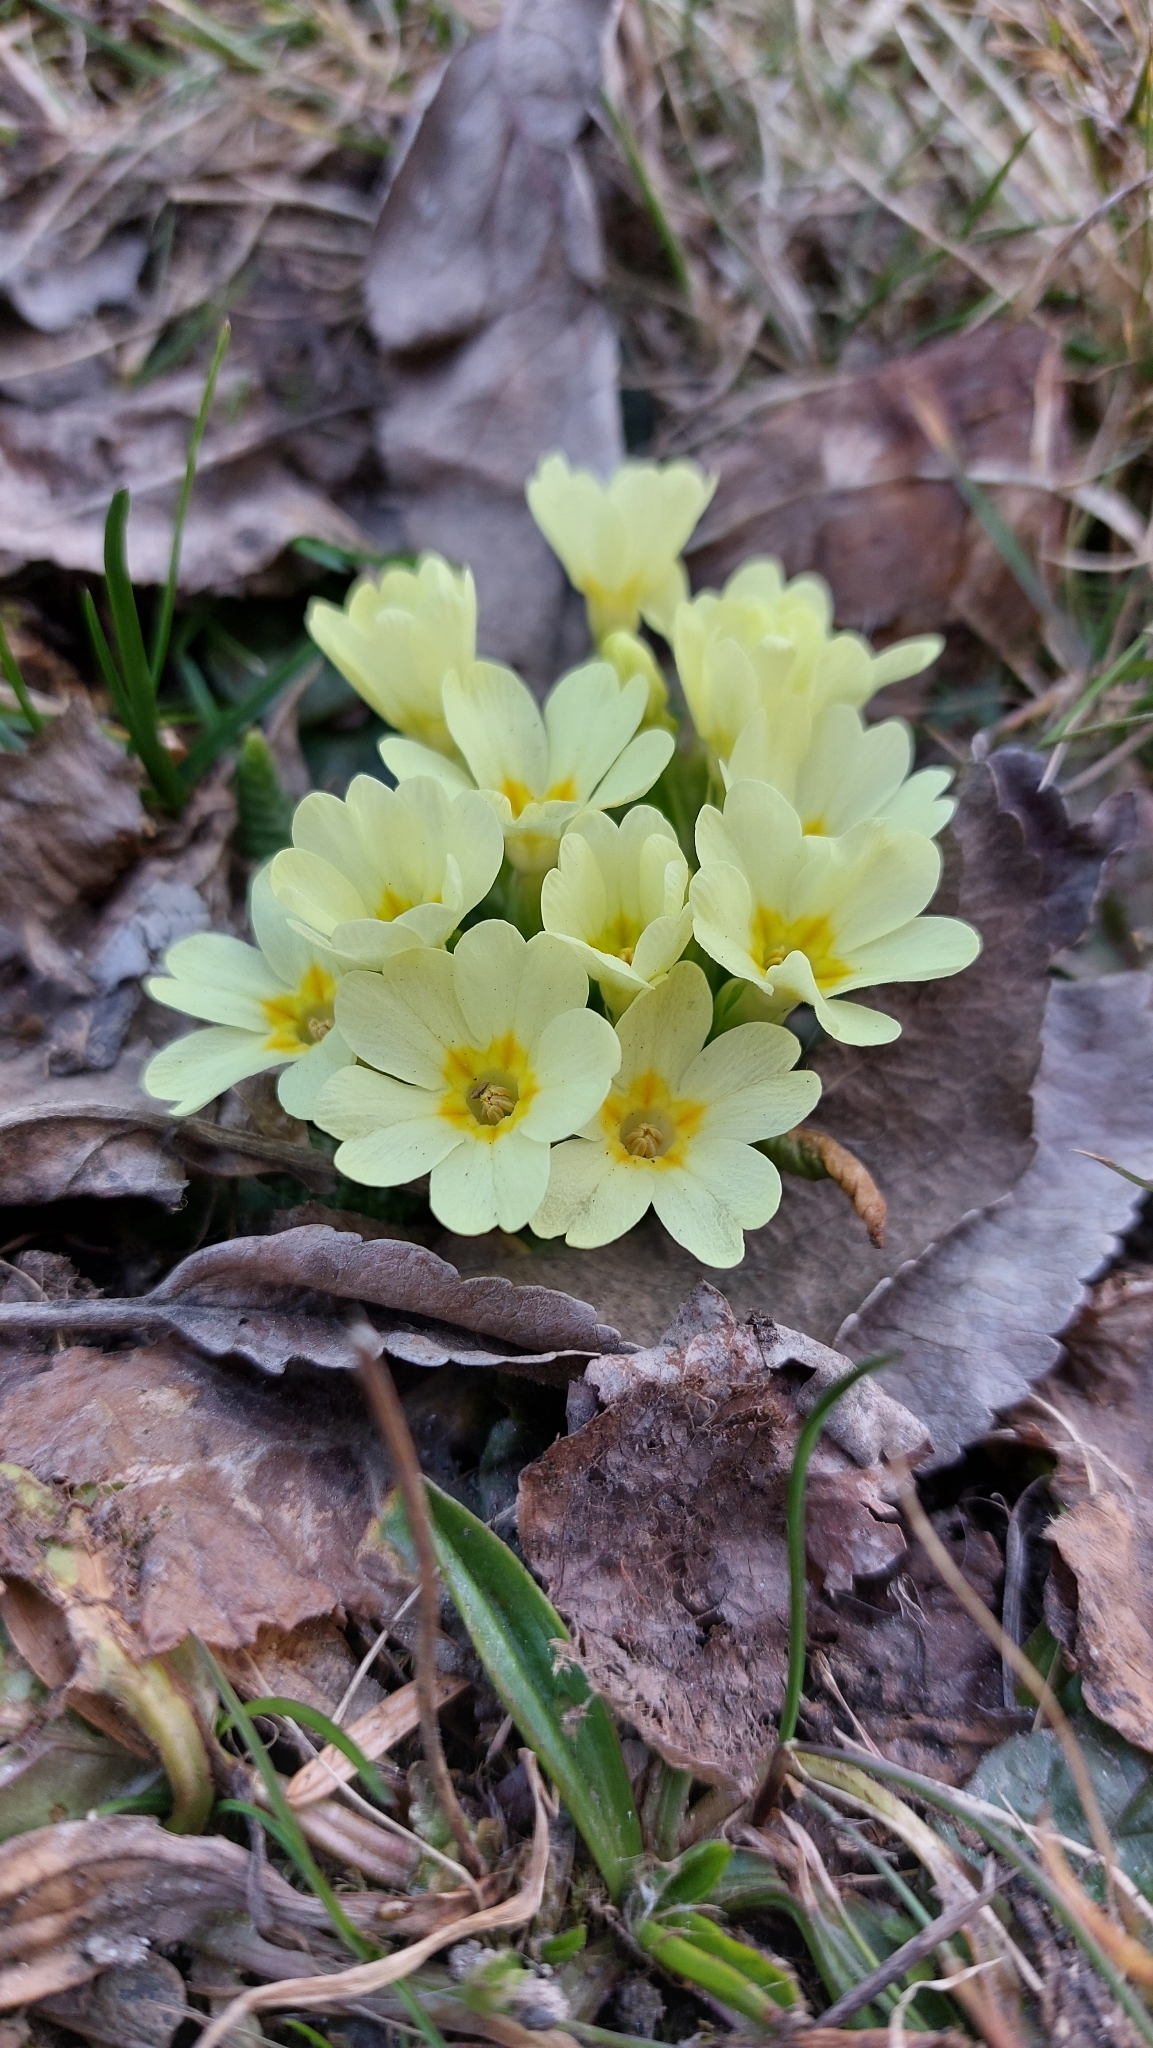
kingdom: Plantae
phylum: Tracheophyta
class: Magnoliopsida
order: Ericales
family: Primulaceae
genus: Primula
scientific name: Primula vulgaris
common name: Primrose
